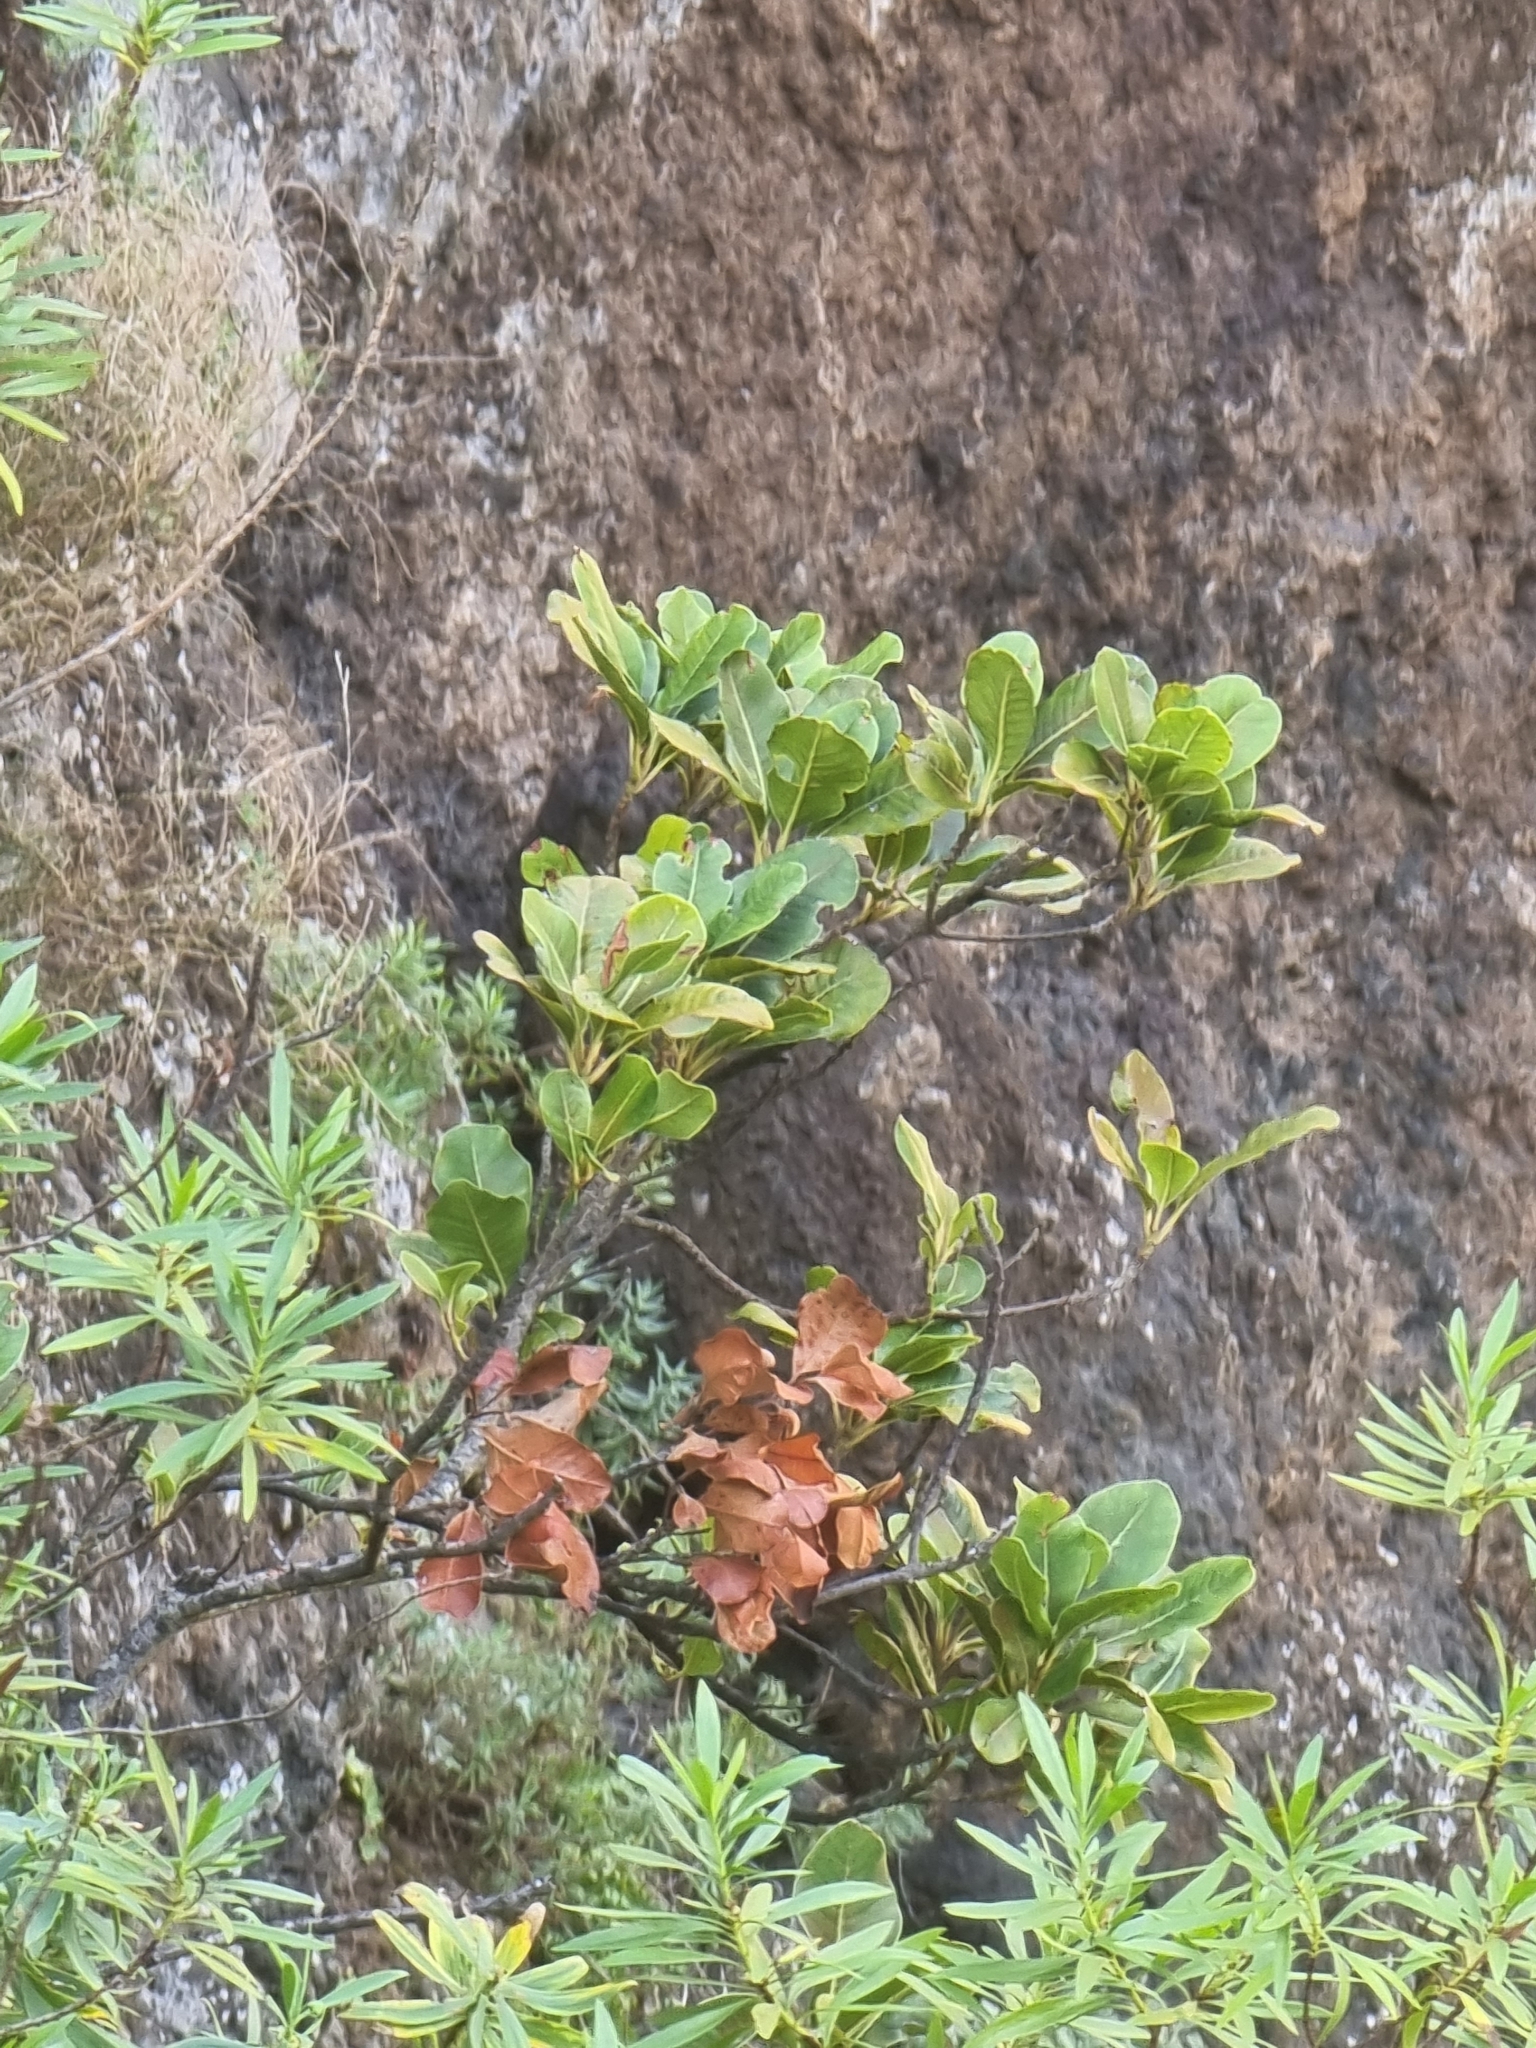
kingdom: Plantae
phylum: Tracheophyta
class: Magnoliopsida
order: Ericales
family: Sapotaceae
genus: Sideroxylon
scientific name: Sideroxylon mirmulans
